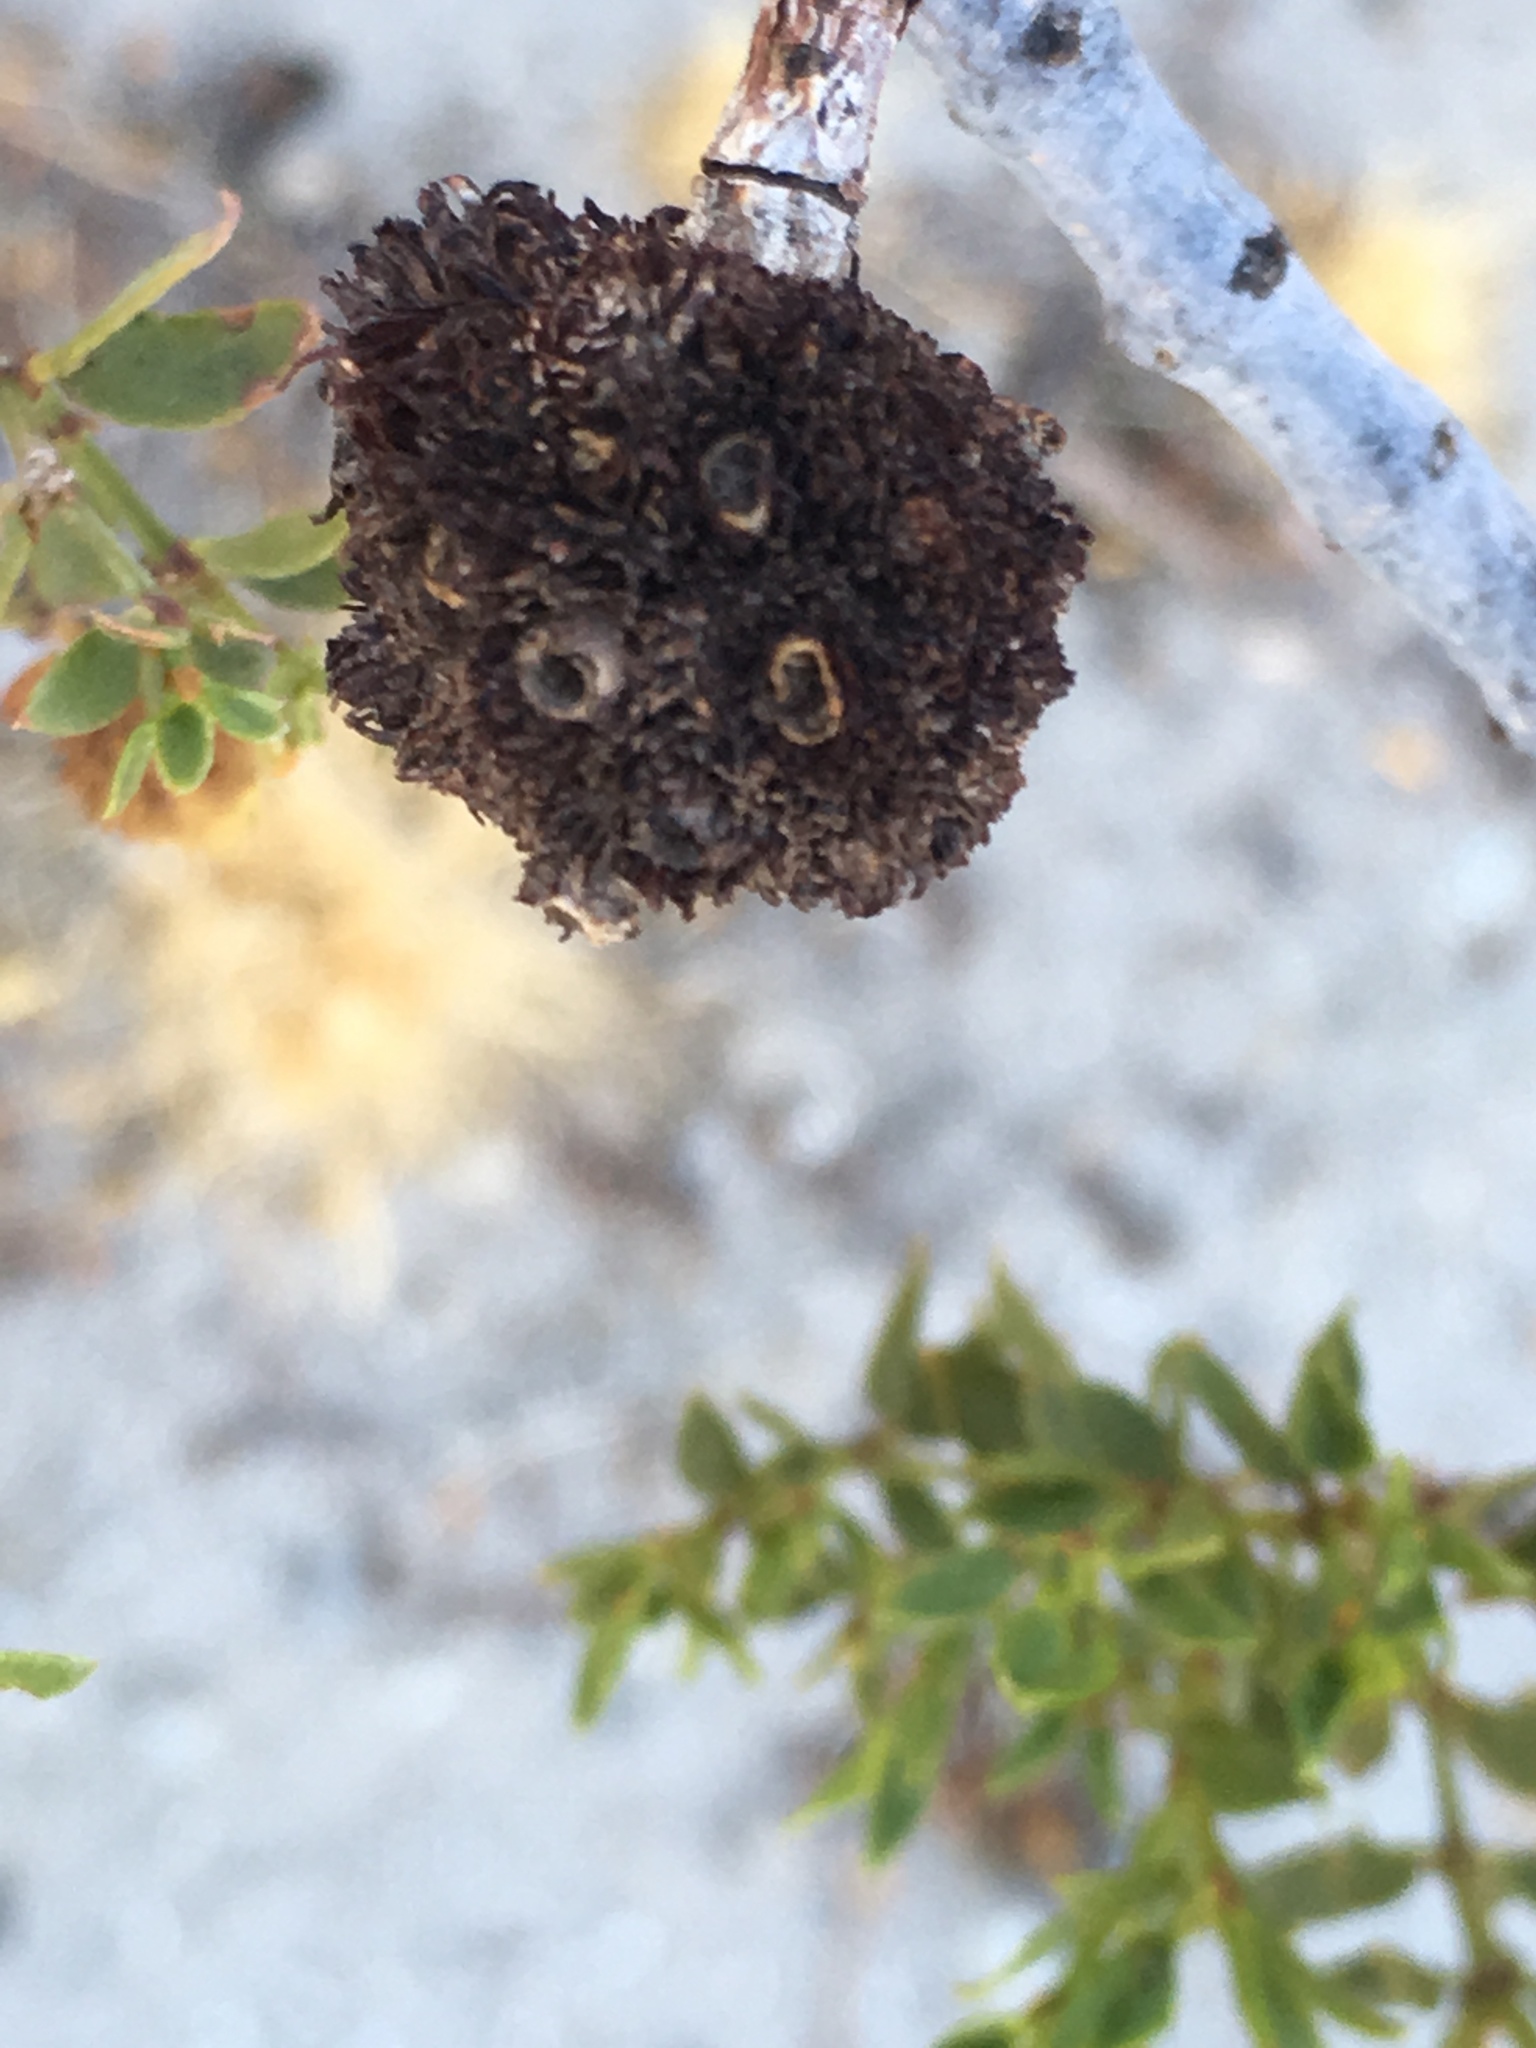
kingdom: Animalia
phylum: Arthropoda
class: Insecta
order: Diptera
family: Cecidomyiidae
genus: Asphondylia
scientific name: Asphondylia auripila
